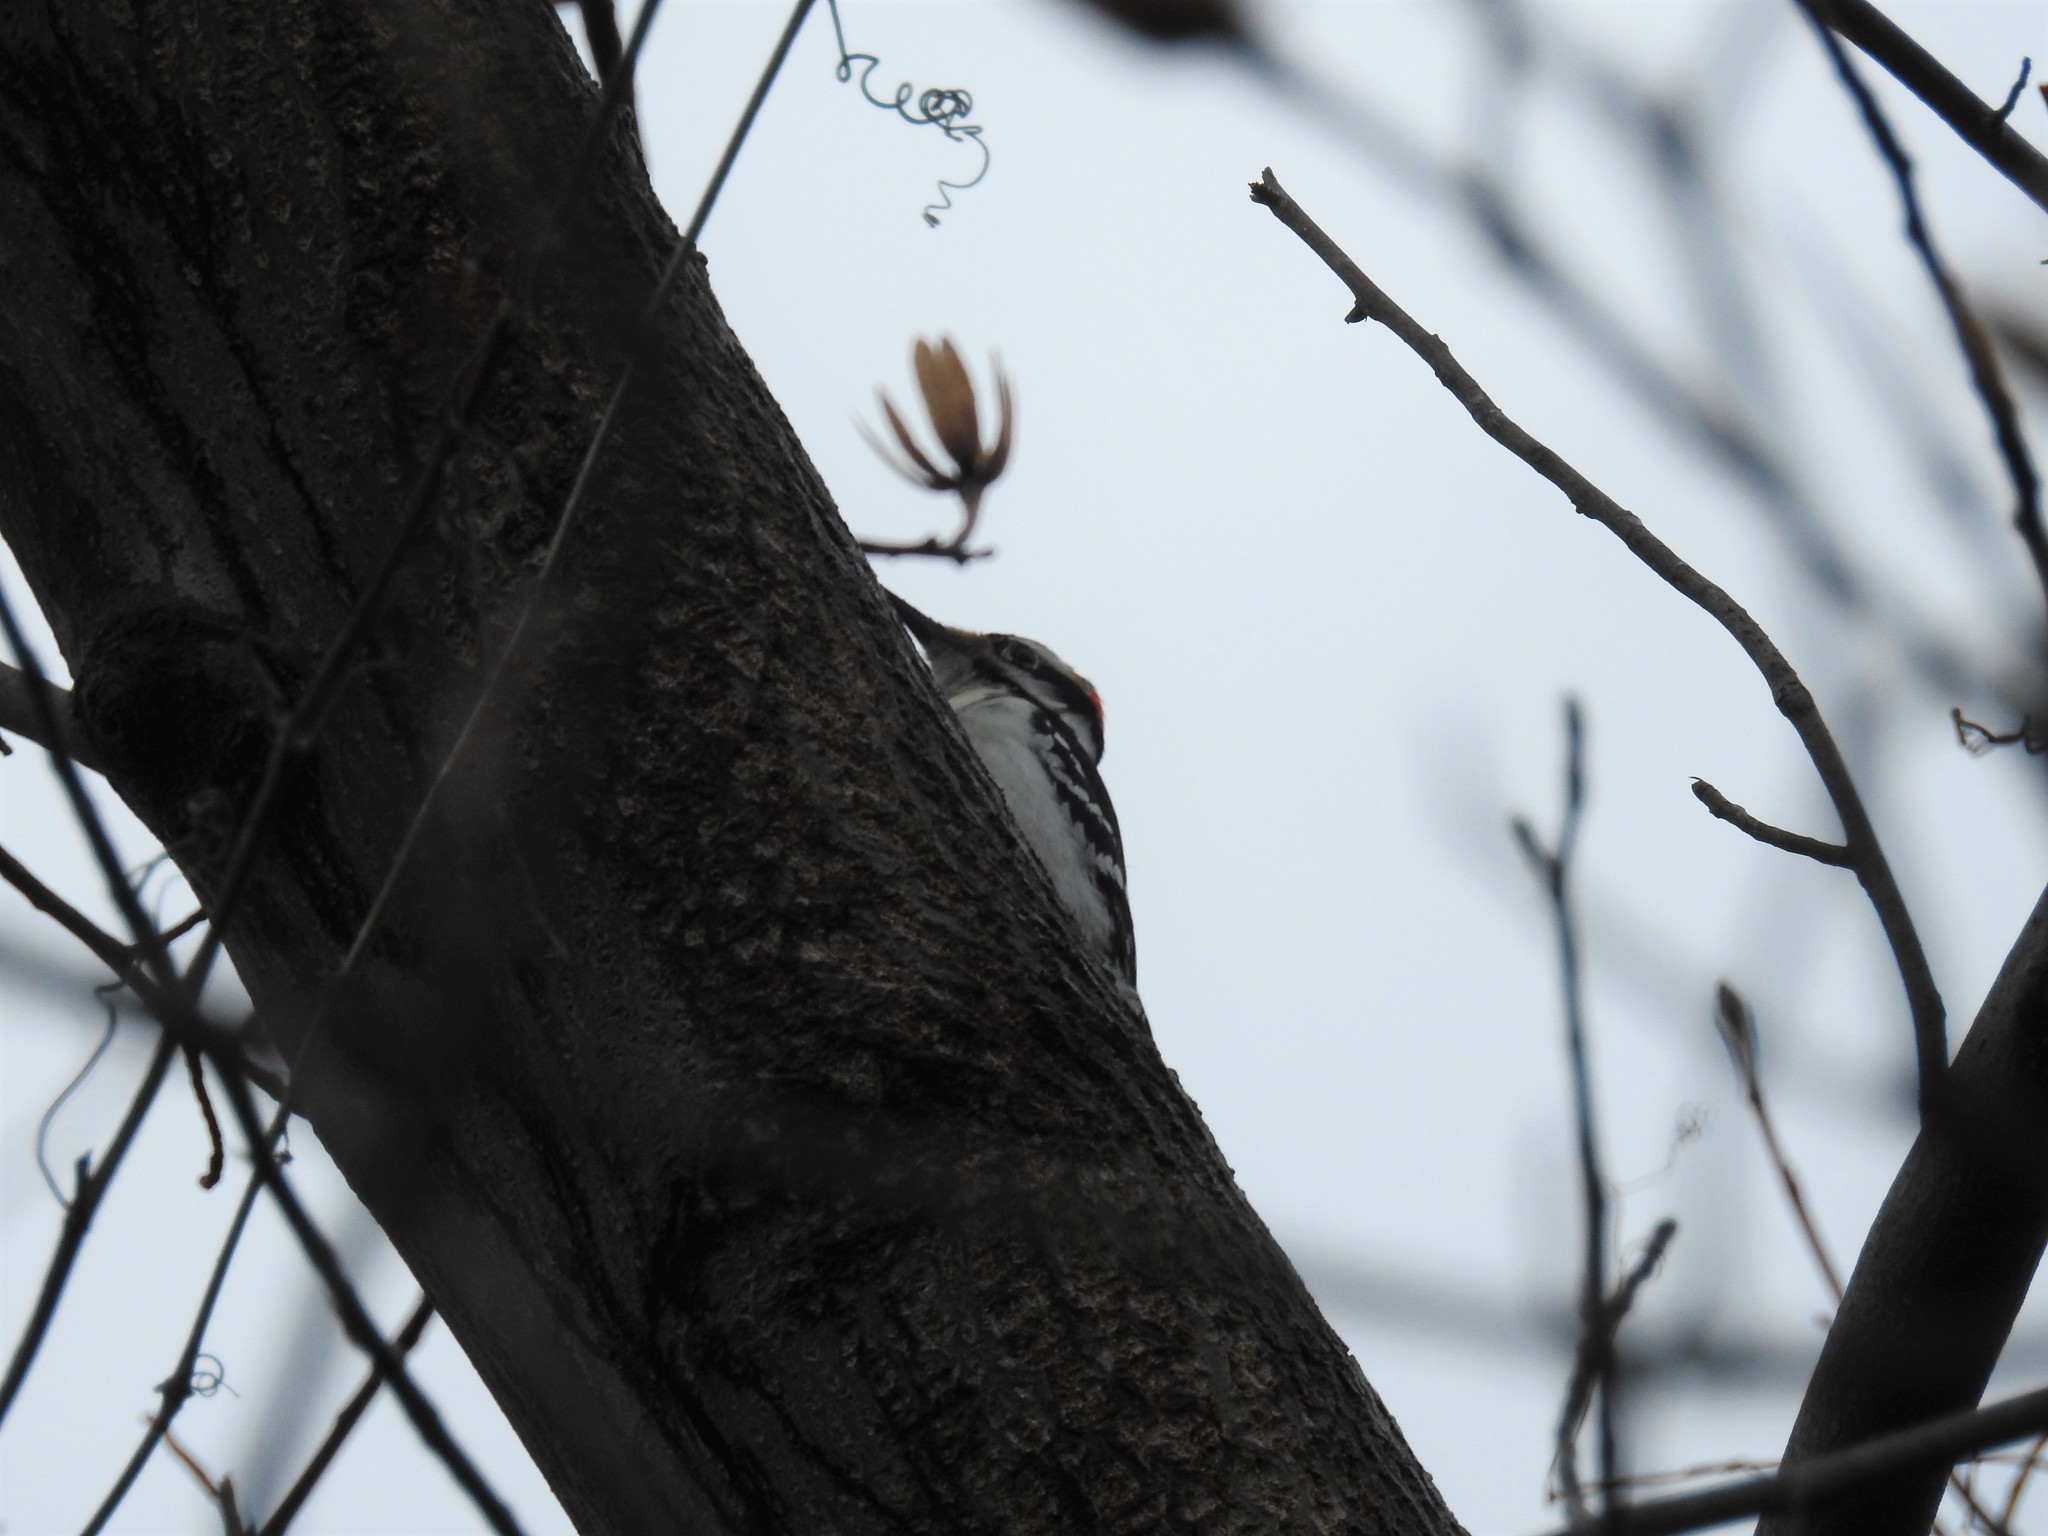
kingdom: Animalia
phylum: Chordata
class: Aves
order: Piciformes
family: Picidae
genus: Leuconotopicus
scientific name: Leuconotopicus villosus
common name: Hairy woodpecker
